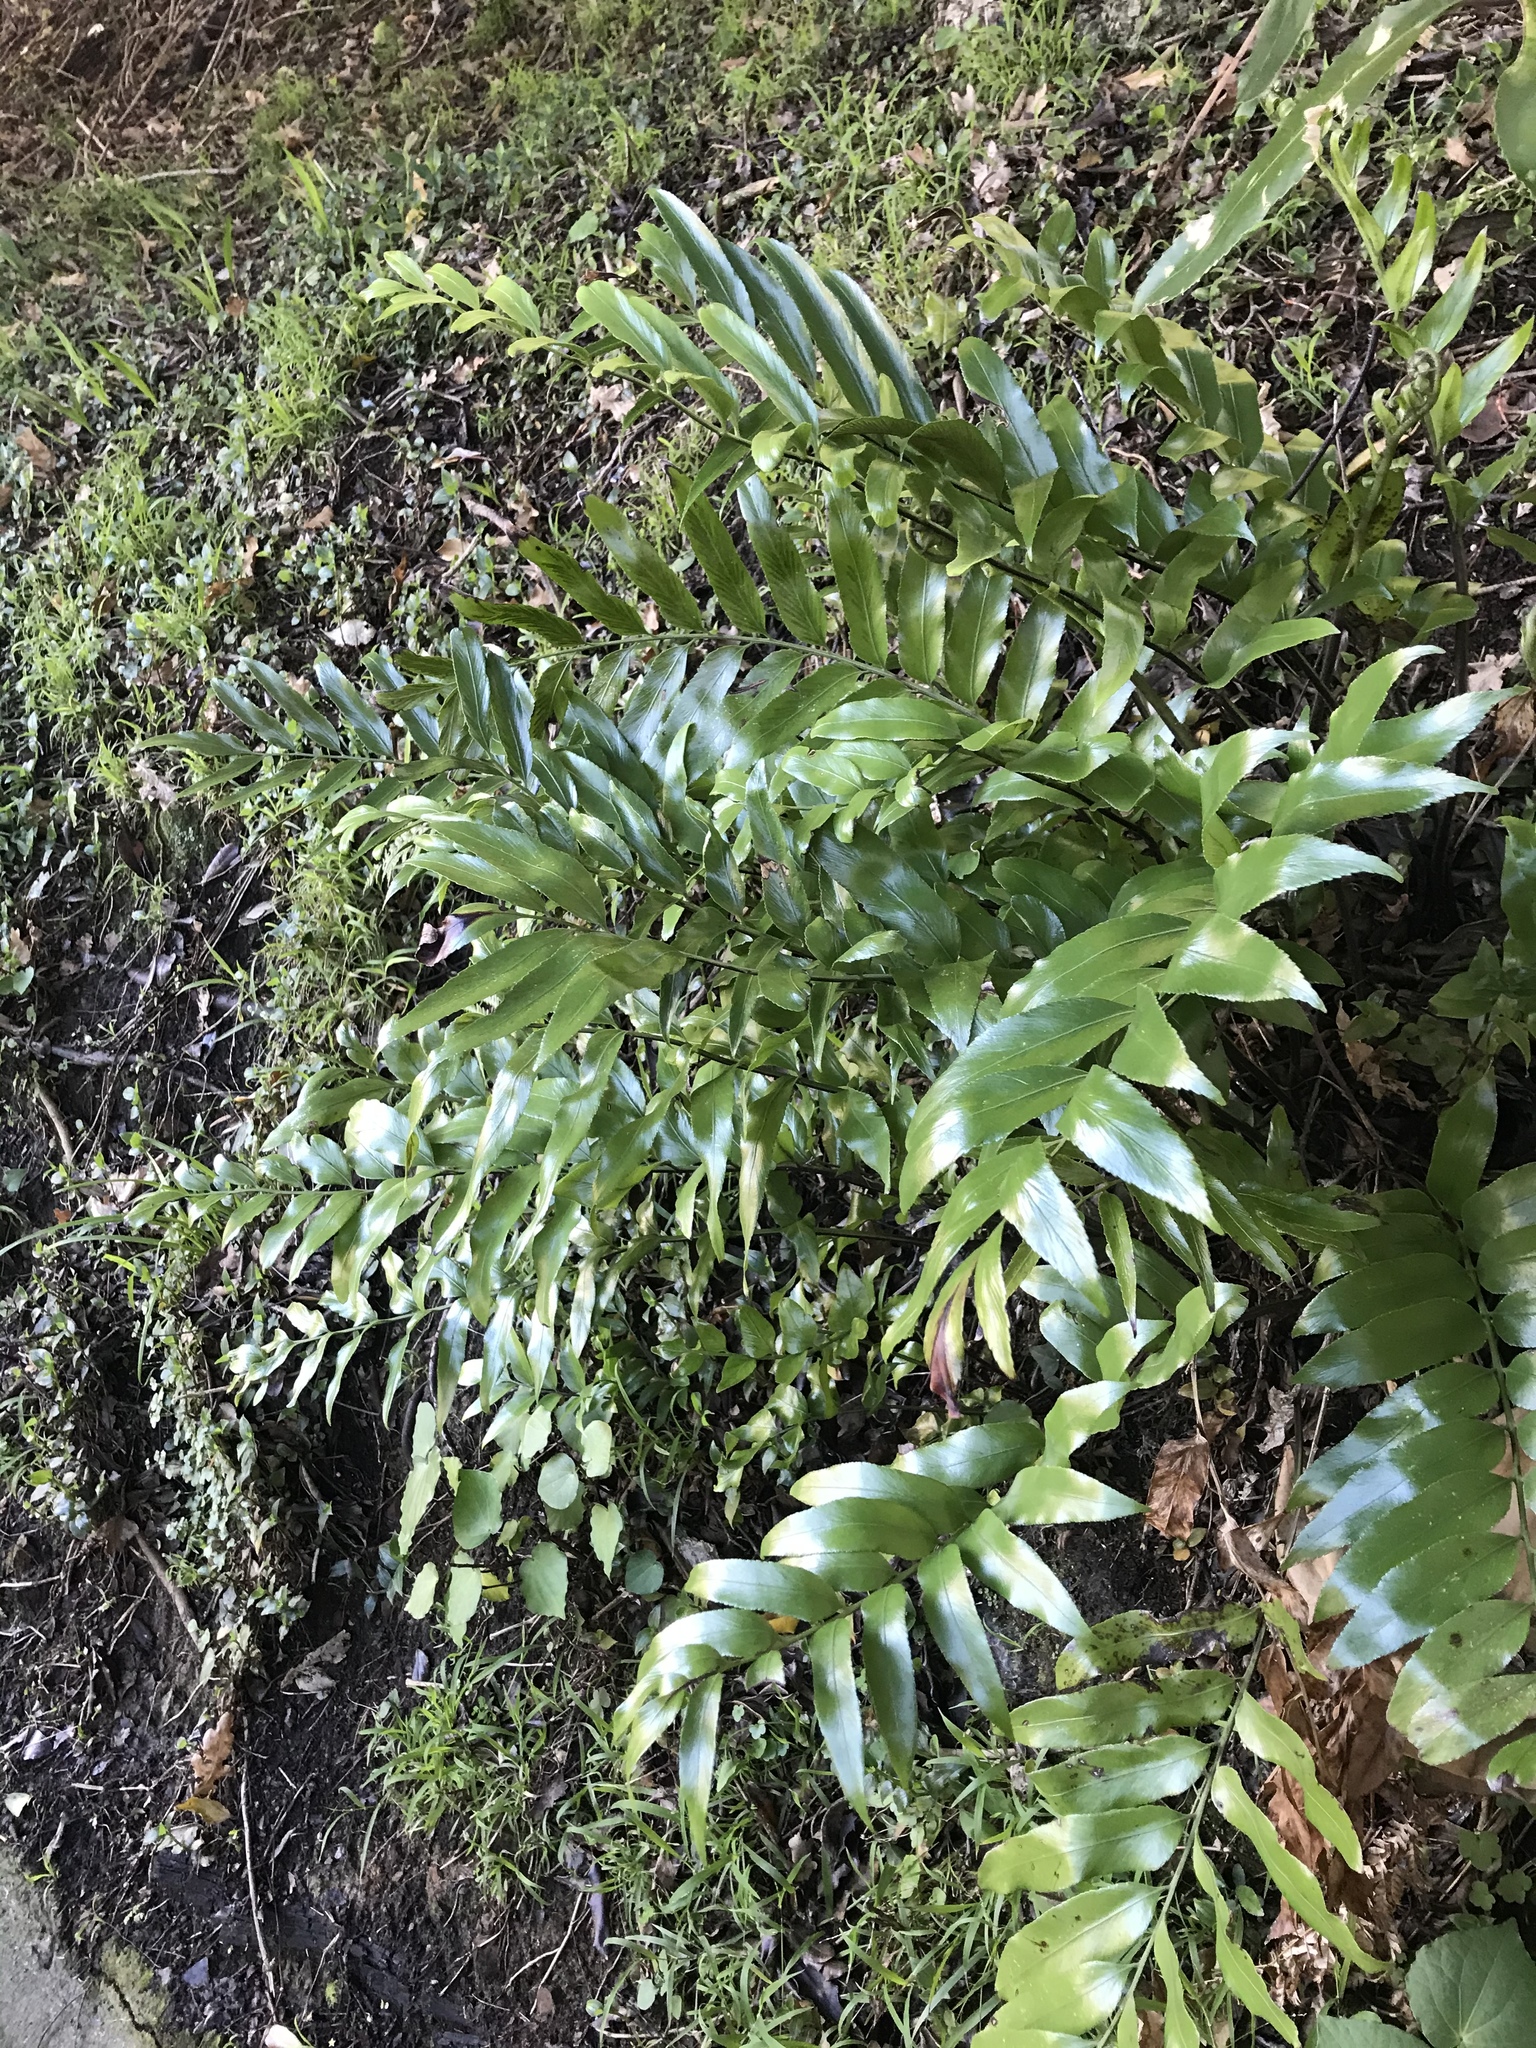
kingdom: Plantae
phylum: Tracheophyta
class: Polypodiopsida
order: Polypodiales
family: Aspleniaceae
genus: Asplenium
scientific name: Asplenium oblongifolium
